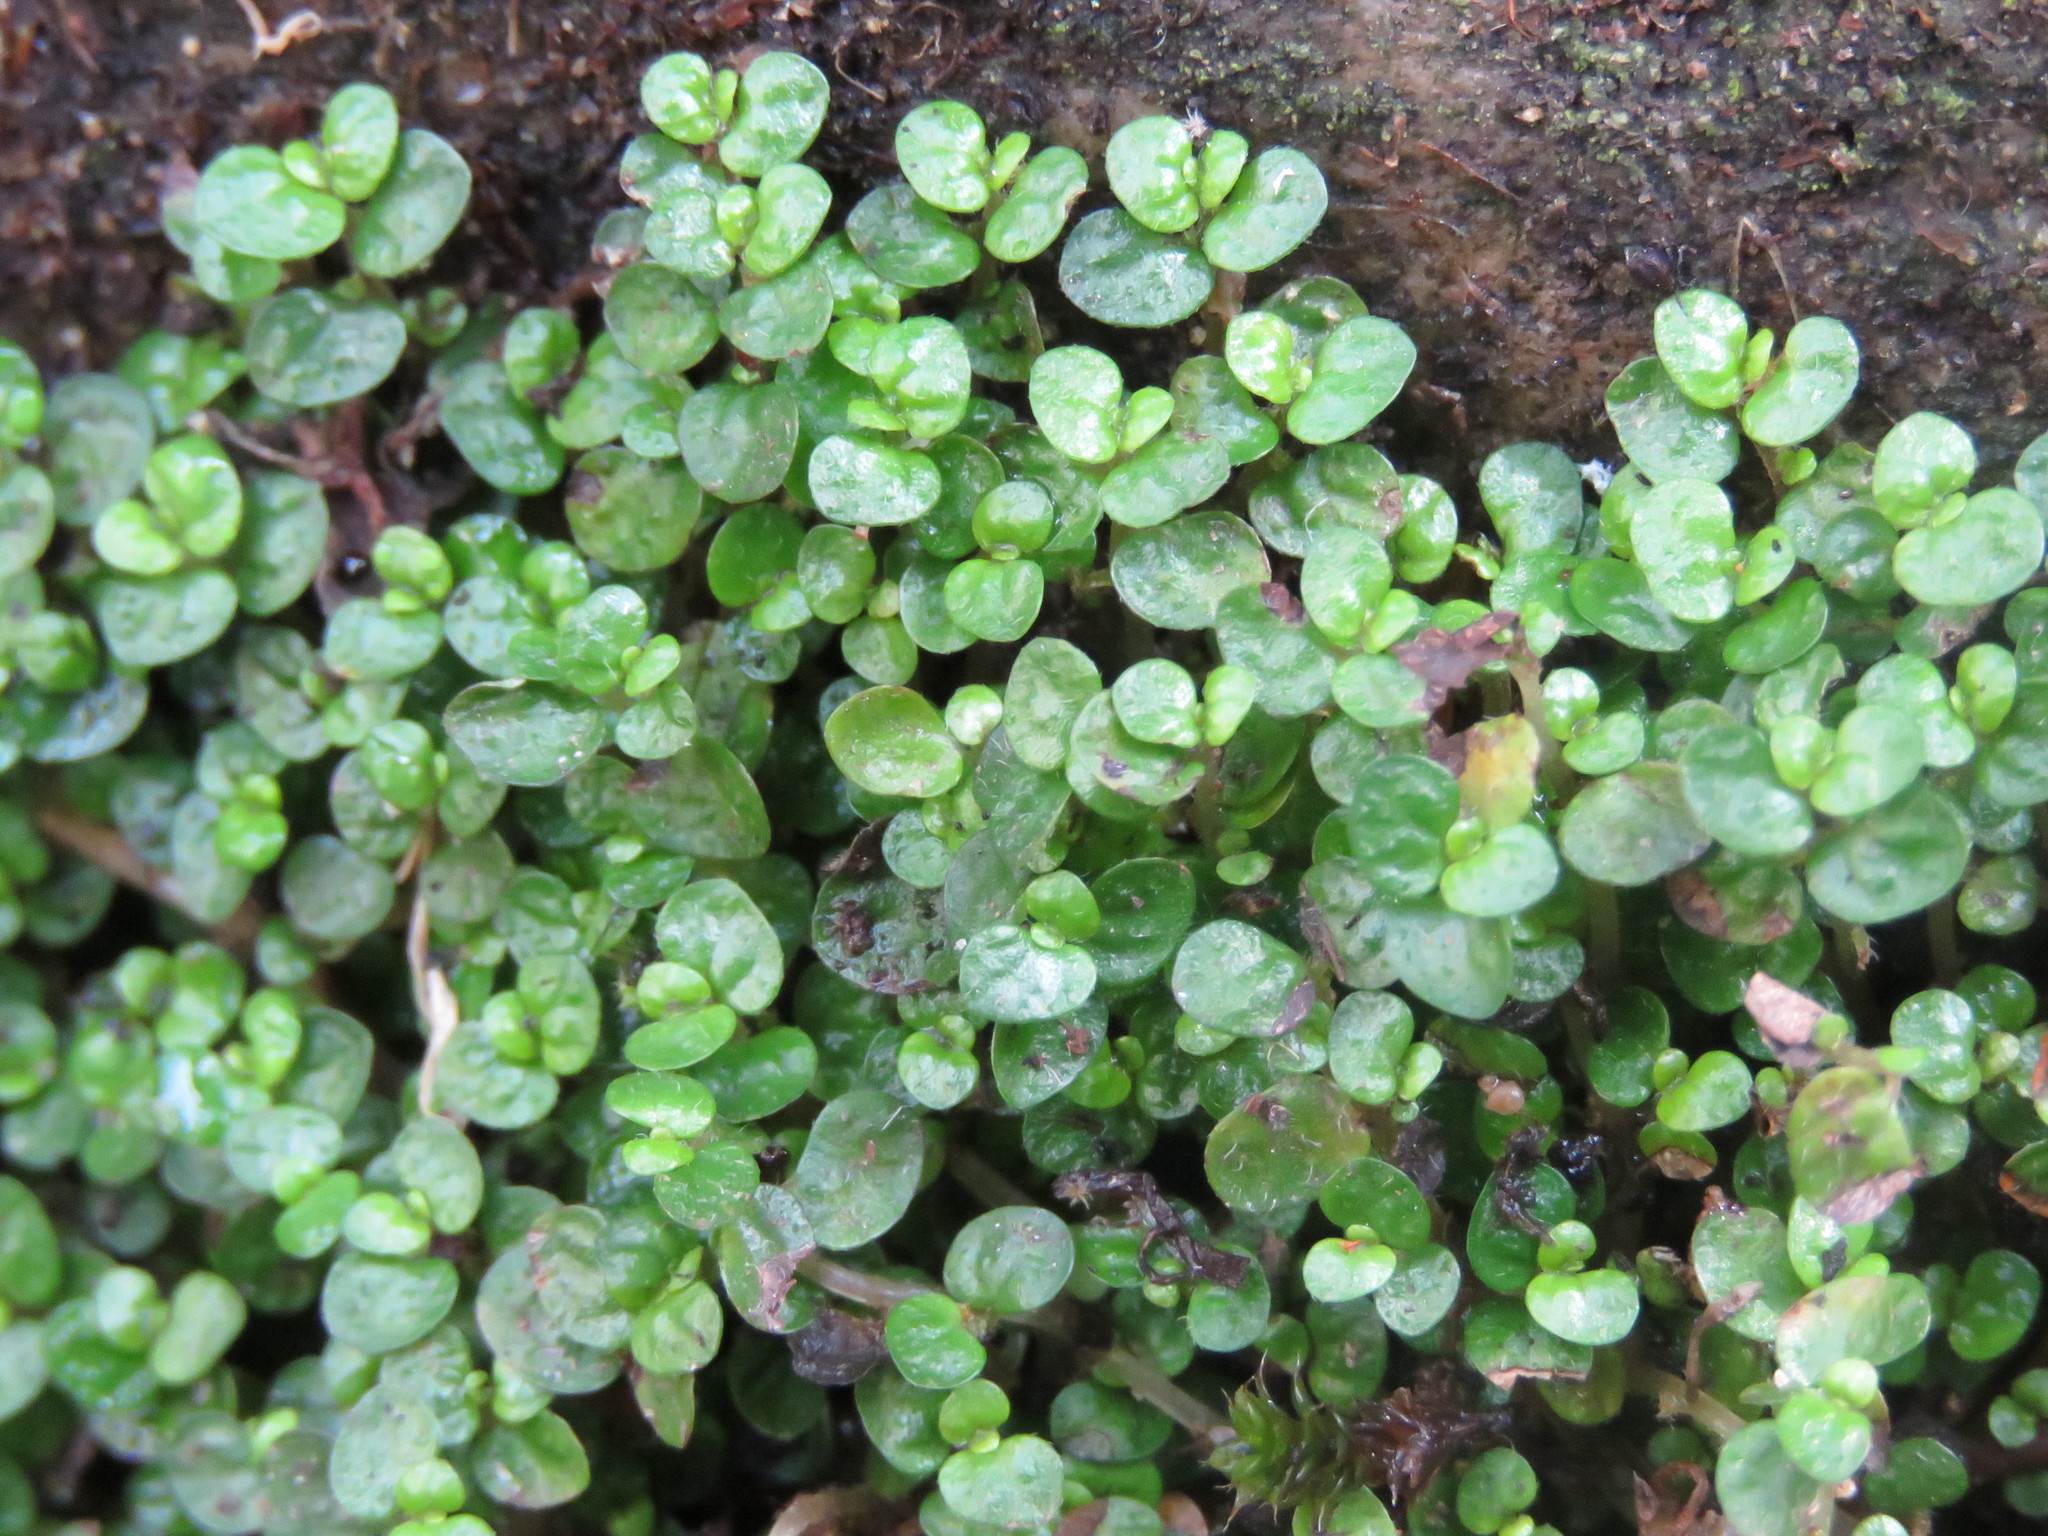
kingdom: Plantae
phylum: Tracheophyta
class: Magnoliopsida
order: Rosales
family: Urticaceae
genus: Soleirolia
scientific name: Soleirolia soleirolii
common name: Mind-your-own-business
